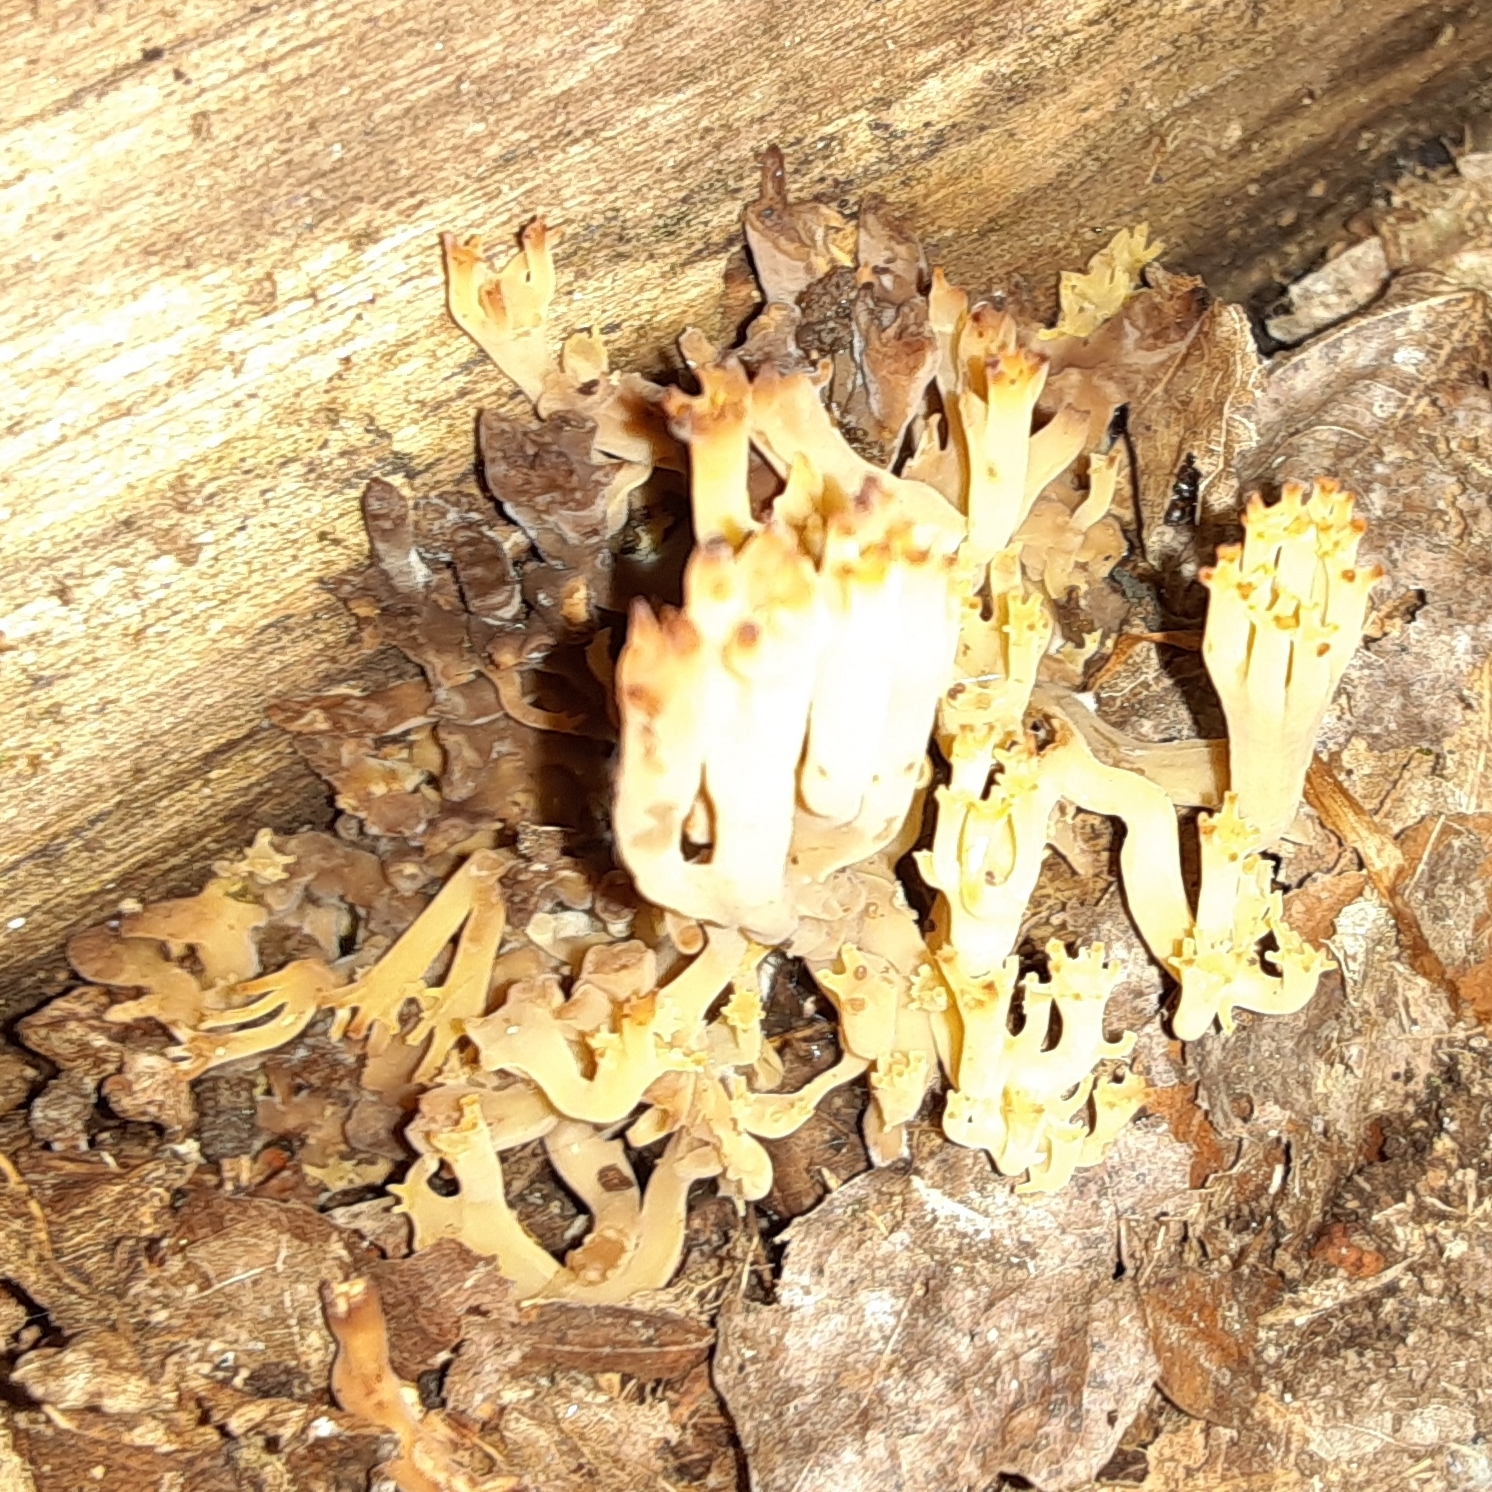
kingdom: Fungi
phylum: Basidiomycota
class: Agaricomycetes
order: Russulales
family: Auriscalpiaceae
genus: Artomyces
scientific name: Artomyces pyxidatus
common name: Crown-tipped coral fungus
